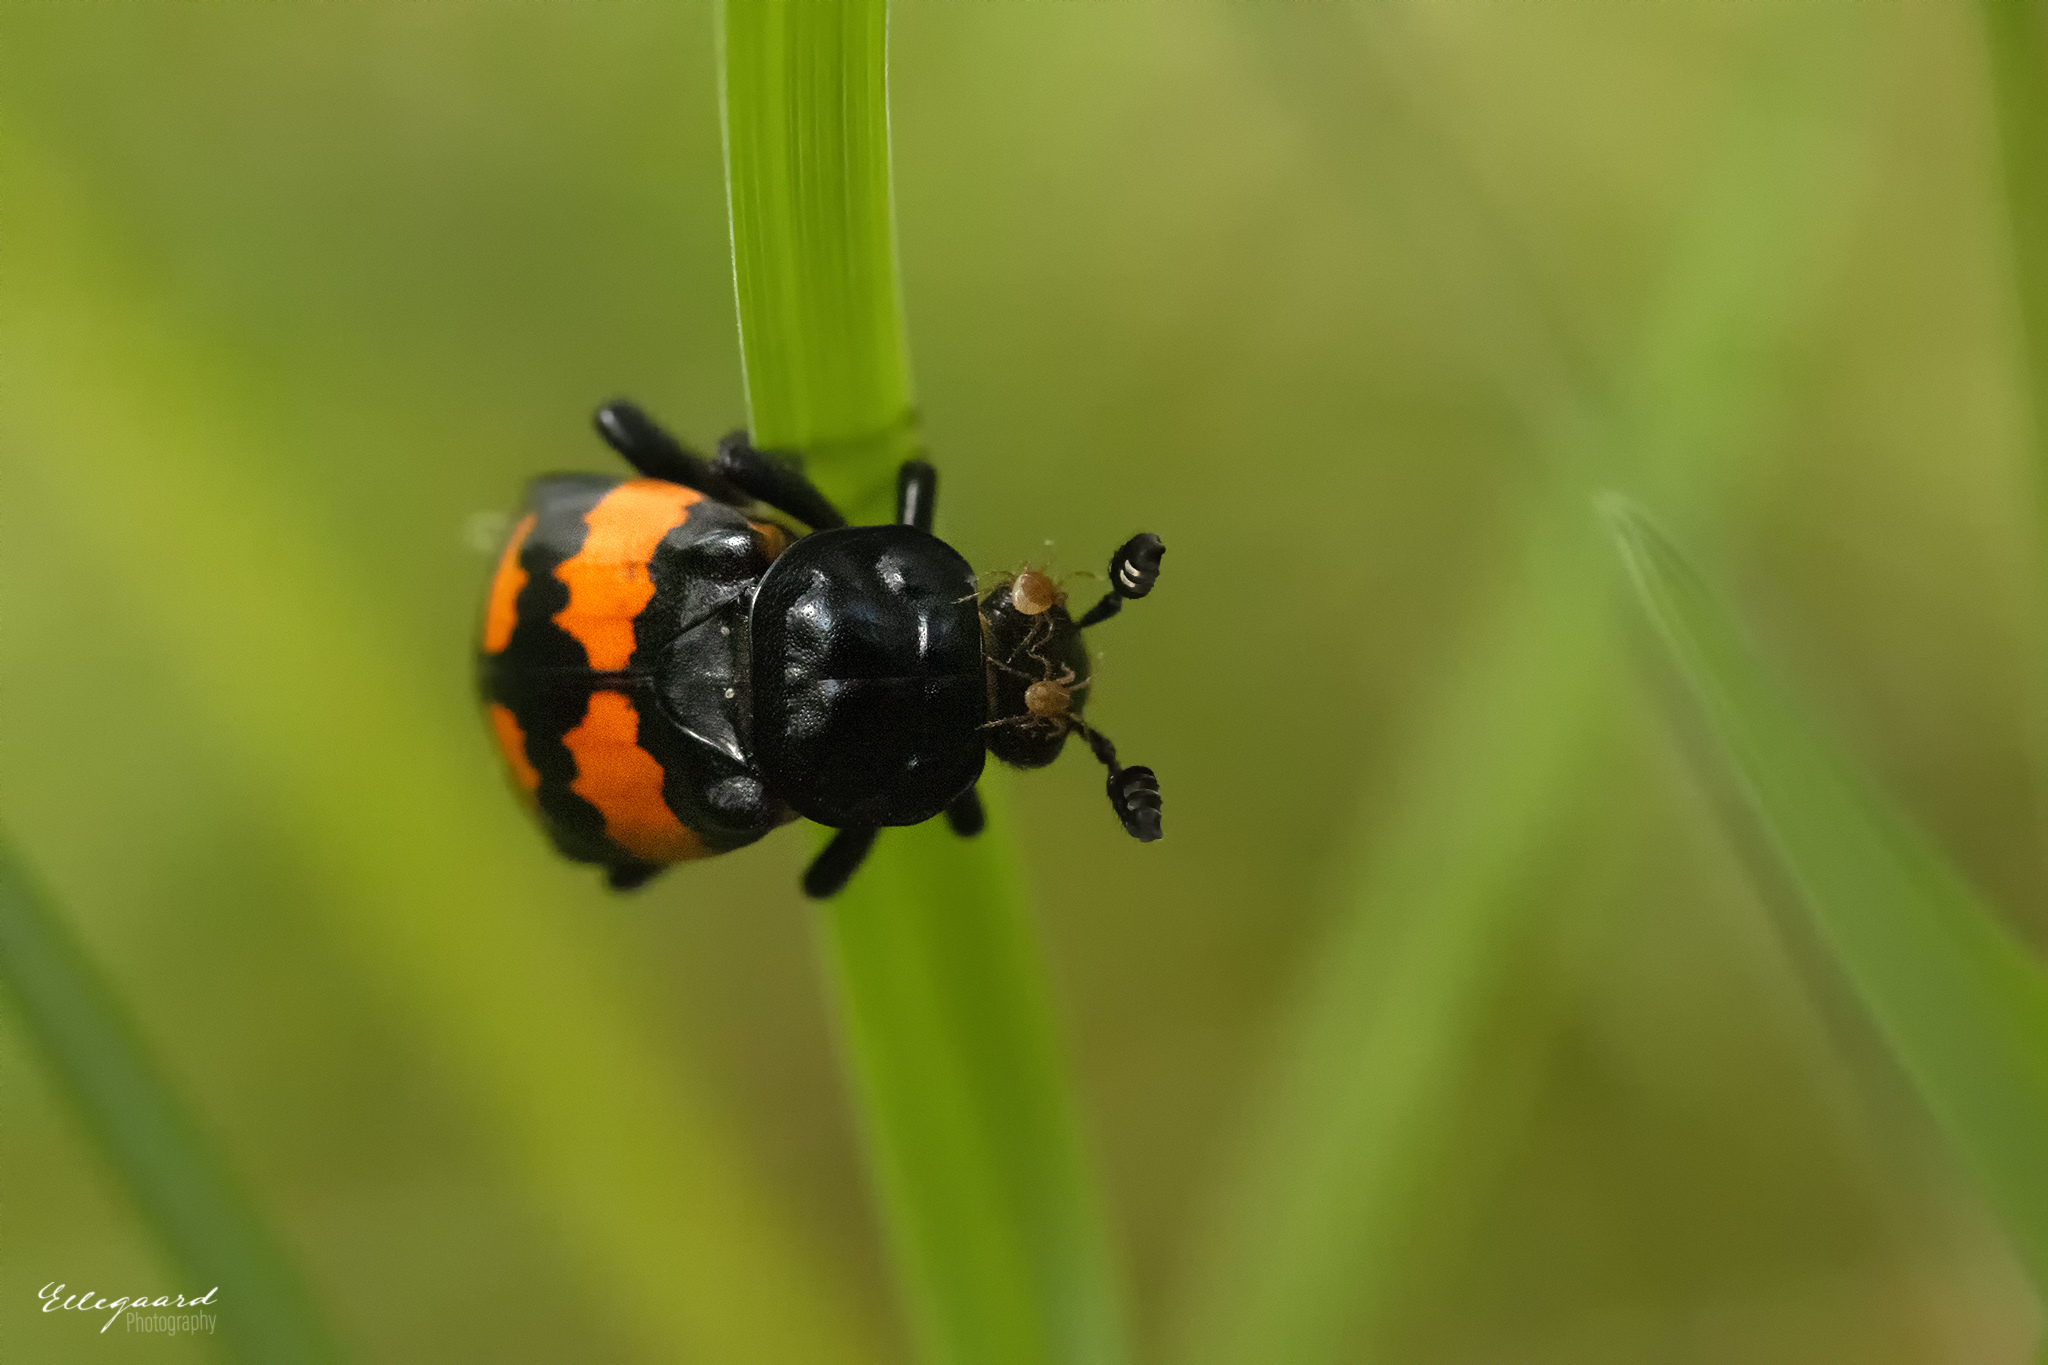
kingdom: Animalia
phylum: Arthropoda
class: Insecta
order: Coleoptera
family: Staphylinidae
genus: Nicrophorus
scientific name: Nicrophorus vespilloides
